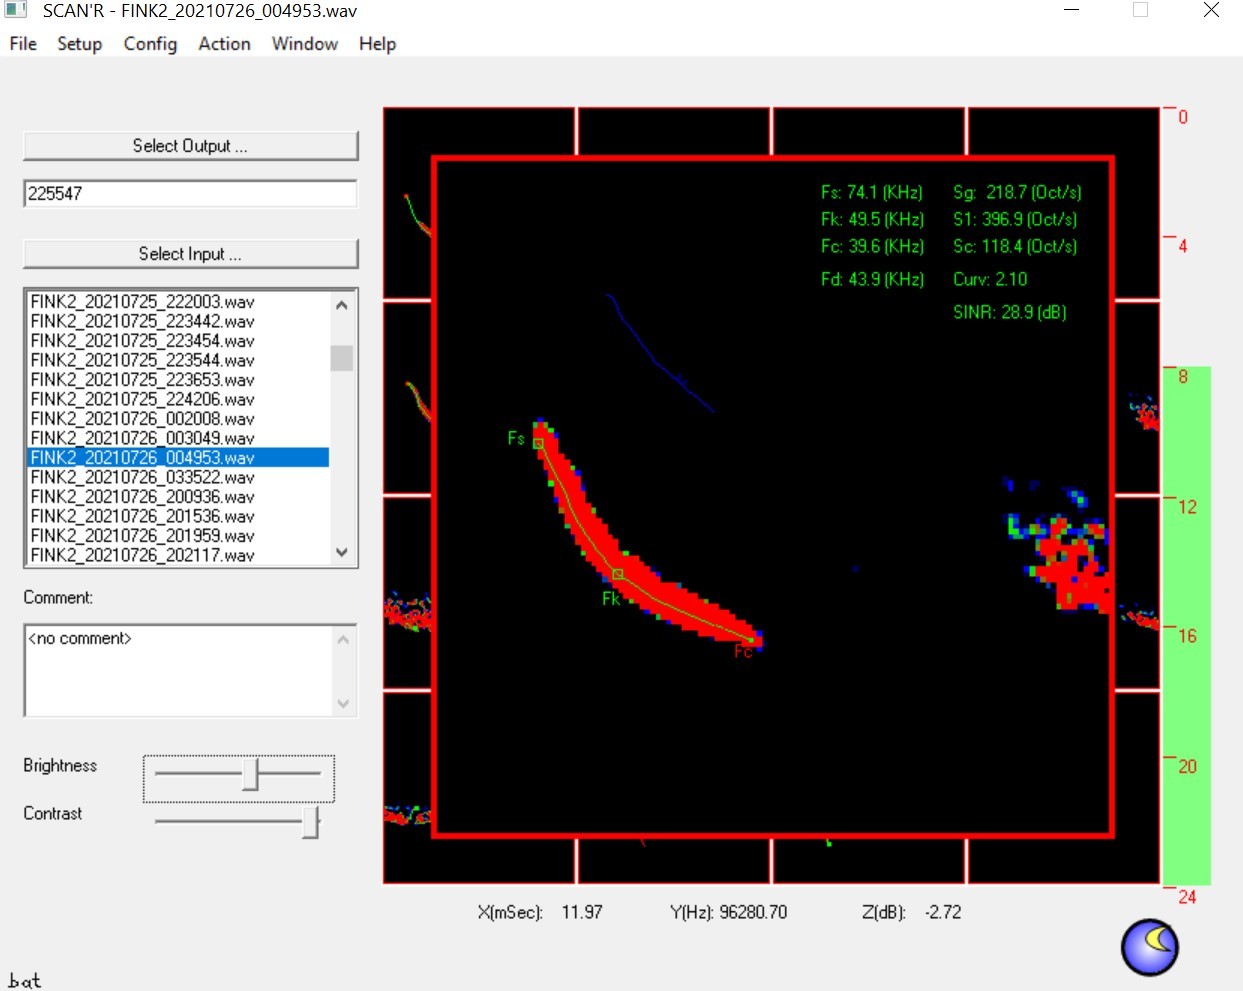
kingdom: Animalia
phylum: Chordata
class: Mammalia
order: Chiroptera
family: Vespertilionidae
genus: Myotis
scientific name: Myotis lucifugus
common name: Little brown bat
